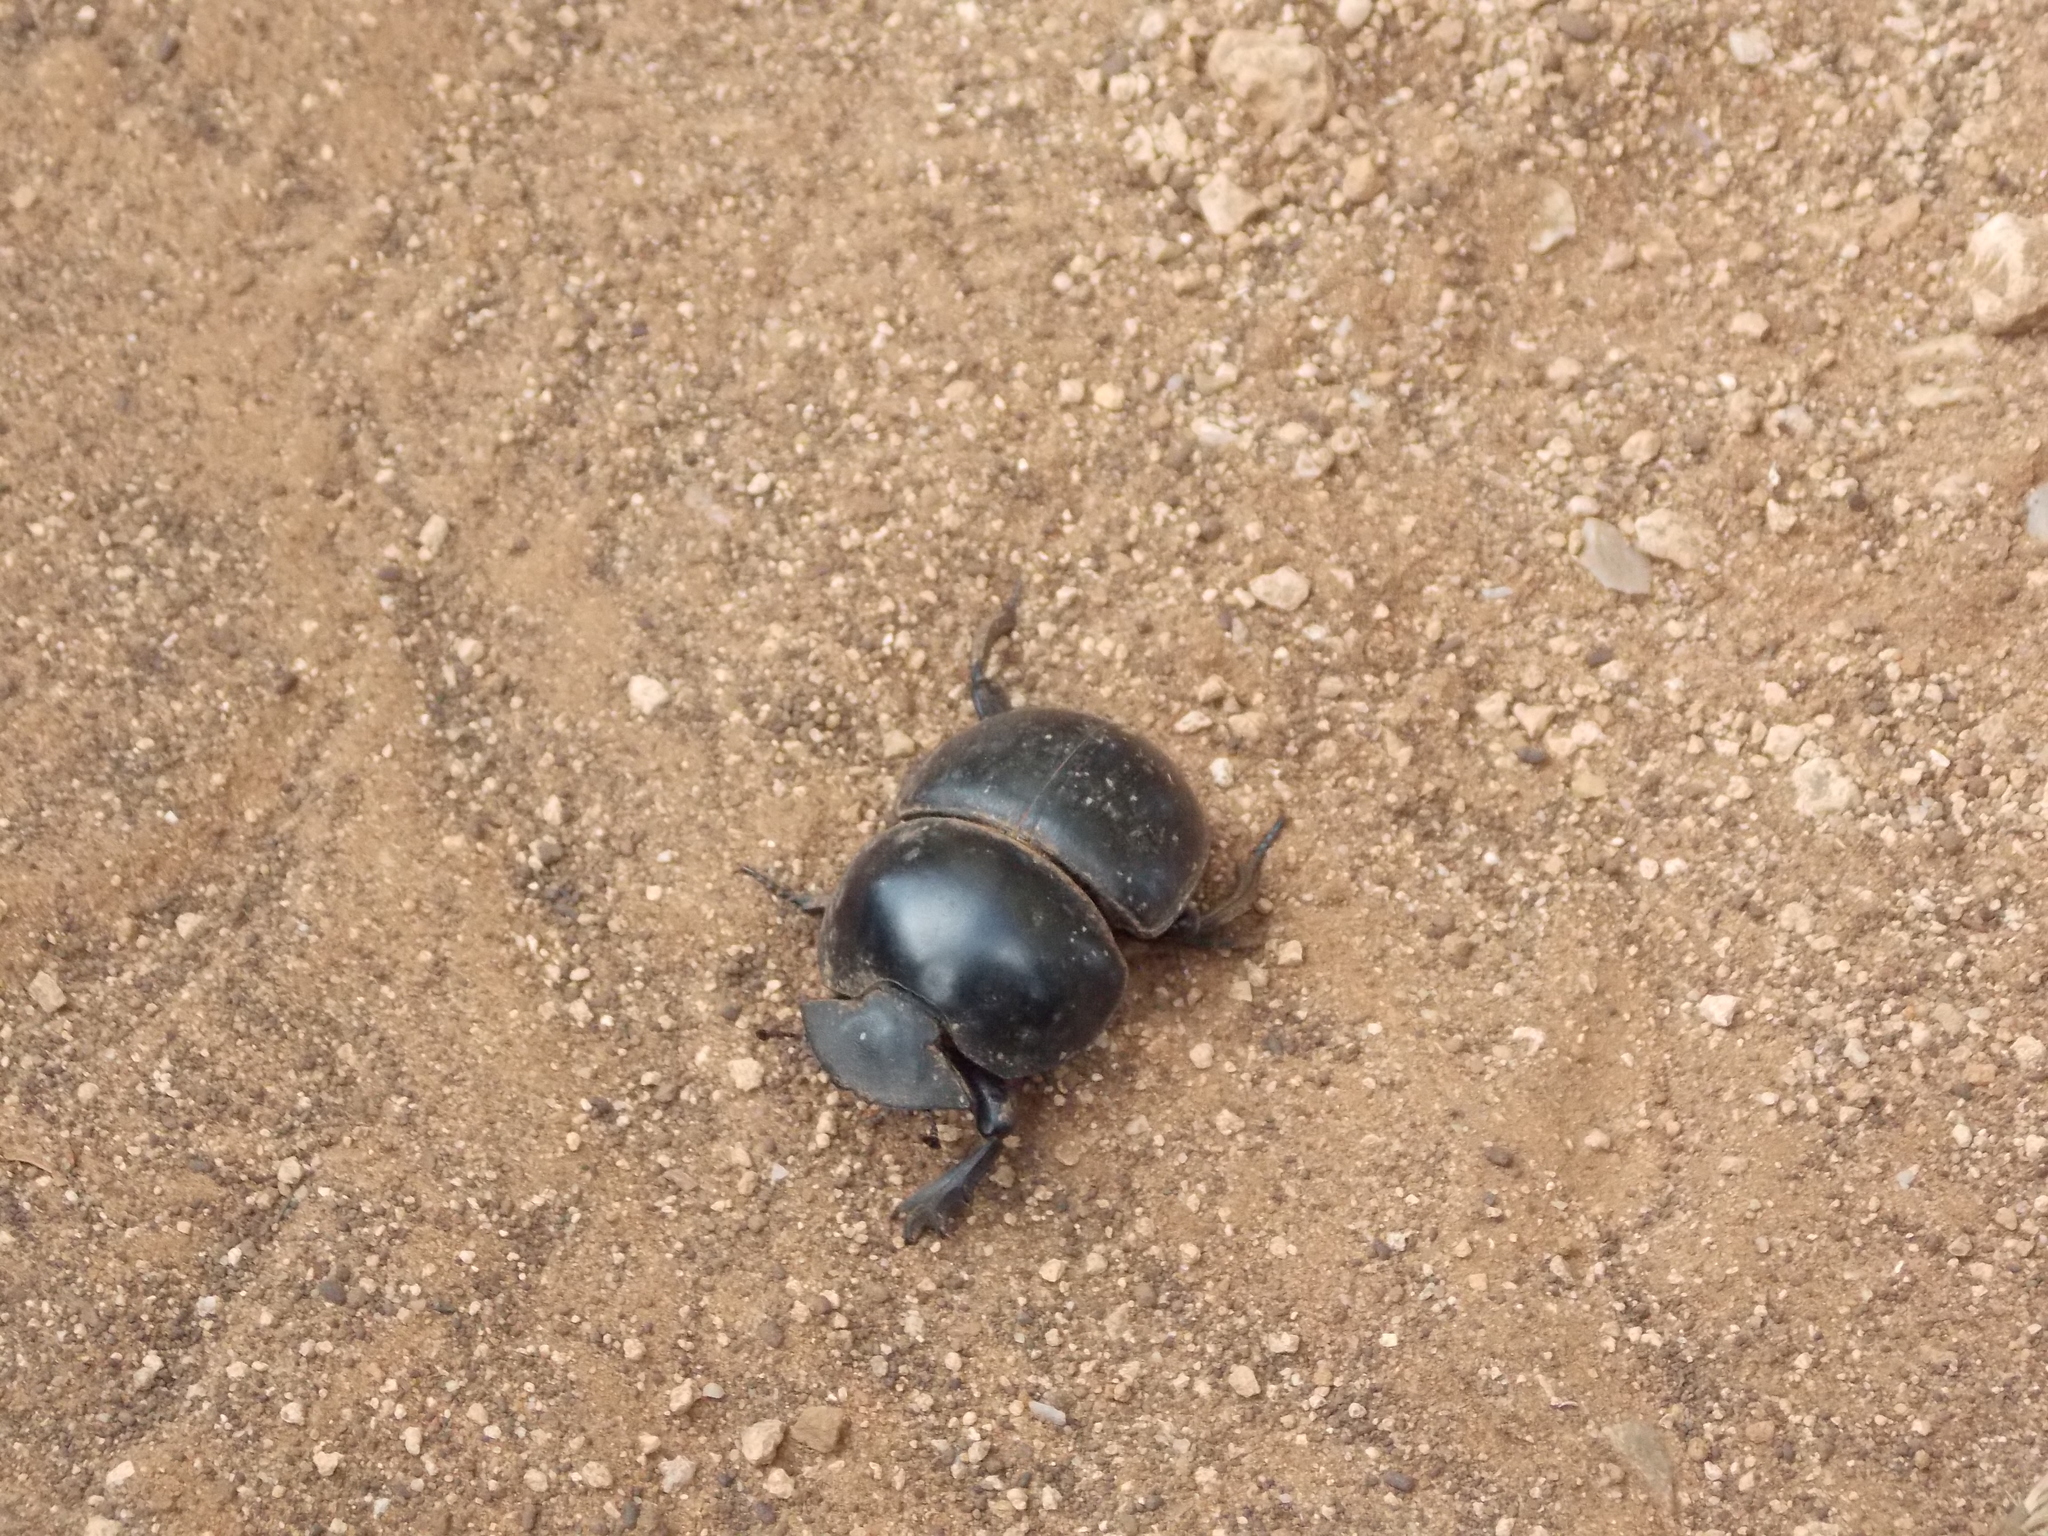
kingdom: Animalia
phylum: Arthropoda
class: Insecta
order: Coleoptera
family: Scarabaeidae
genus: Circellium
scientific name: Circellium bacchus
